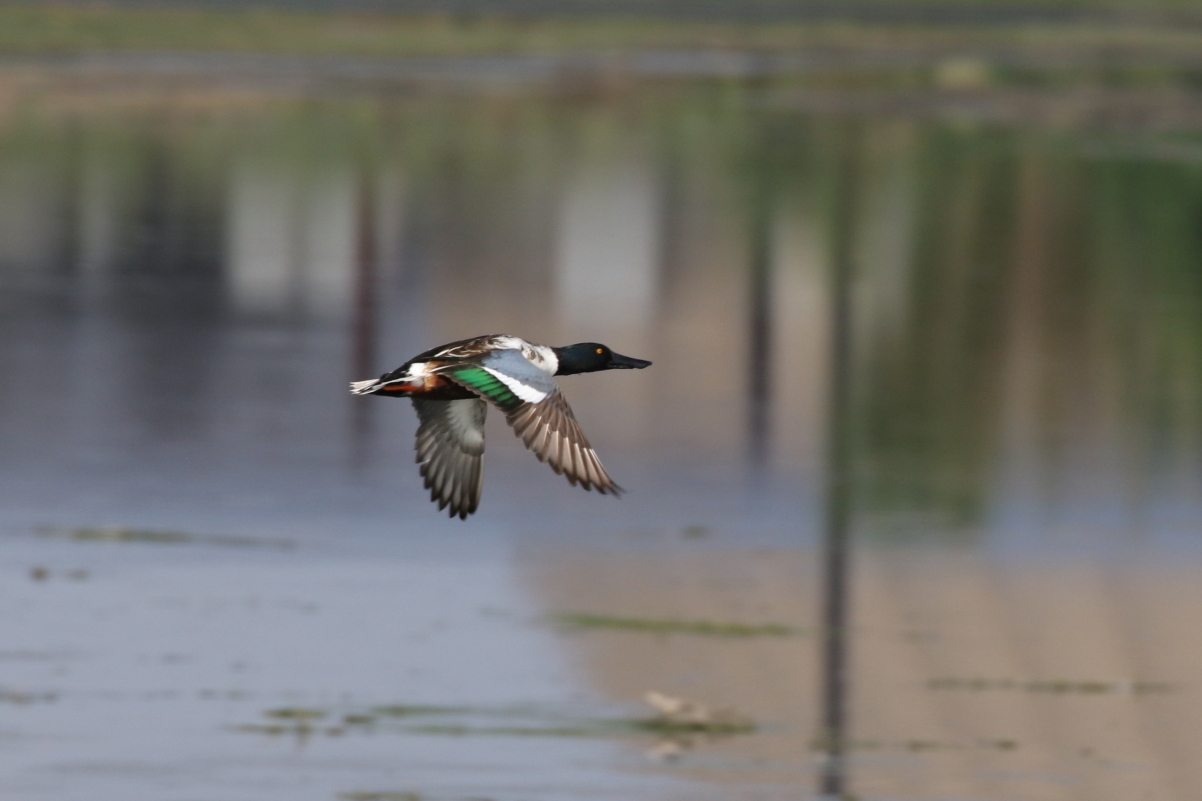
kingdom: Animalia
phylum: Chordata
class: Aves
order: Anseriformes
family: Anatidae
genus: Spatula
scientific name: Spatula clypeata
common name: Northern shoveler
